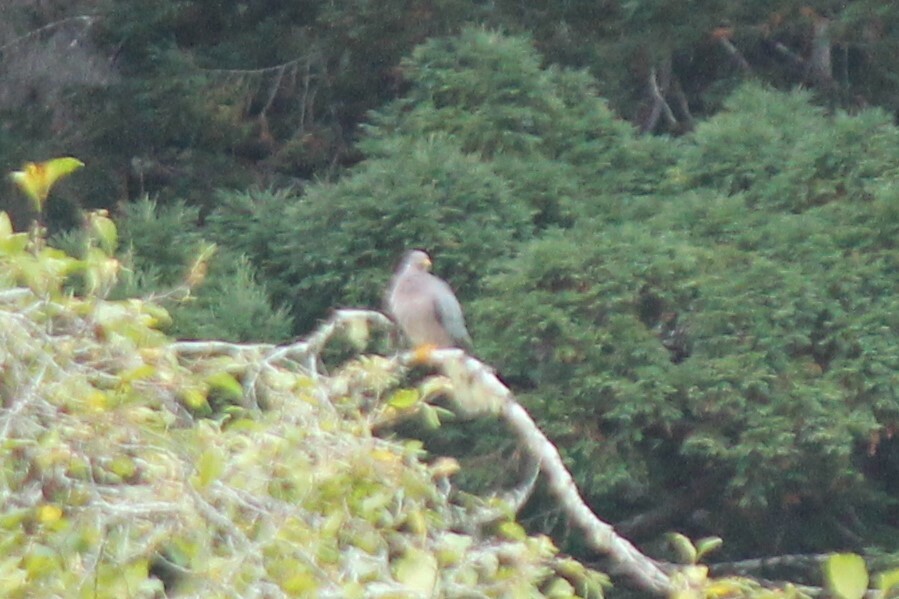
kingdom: Animalia
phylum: Chordata
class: Aves
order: Columbiformes
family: Columbidae
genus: Patagioenas
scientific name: Patagioenas fasciata
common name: Band-tailed pigeon
